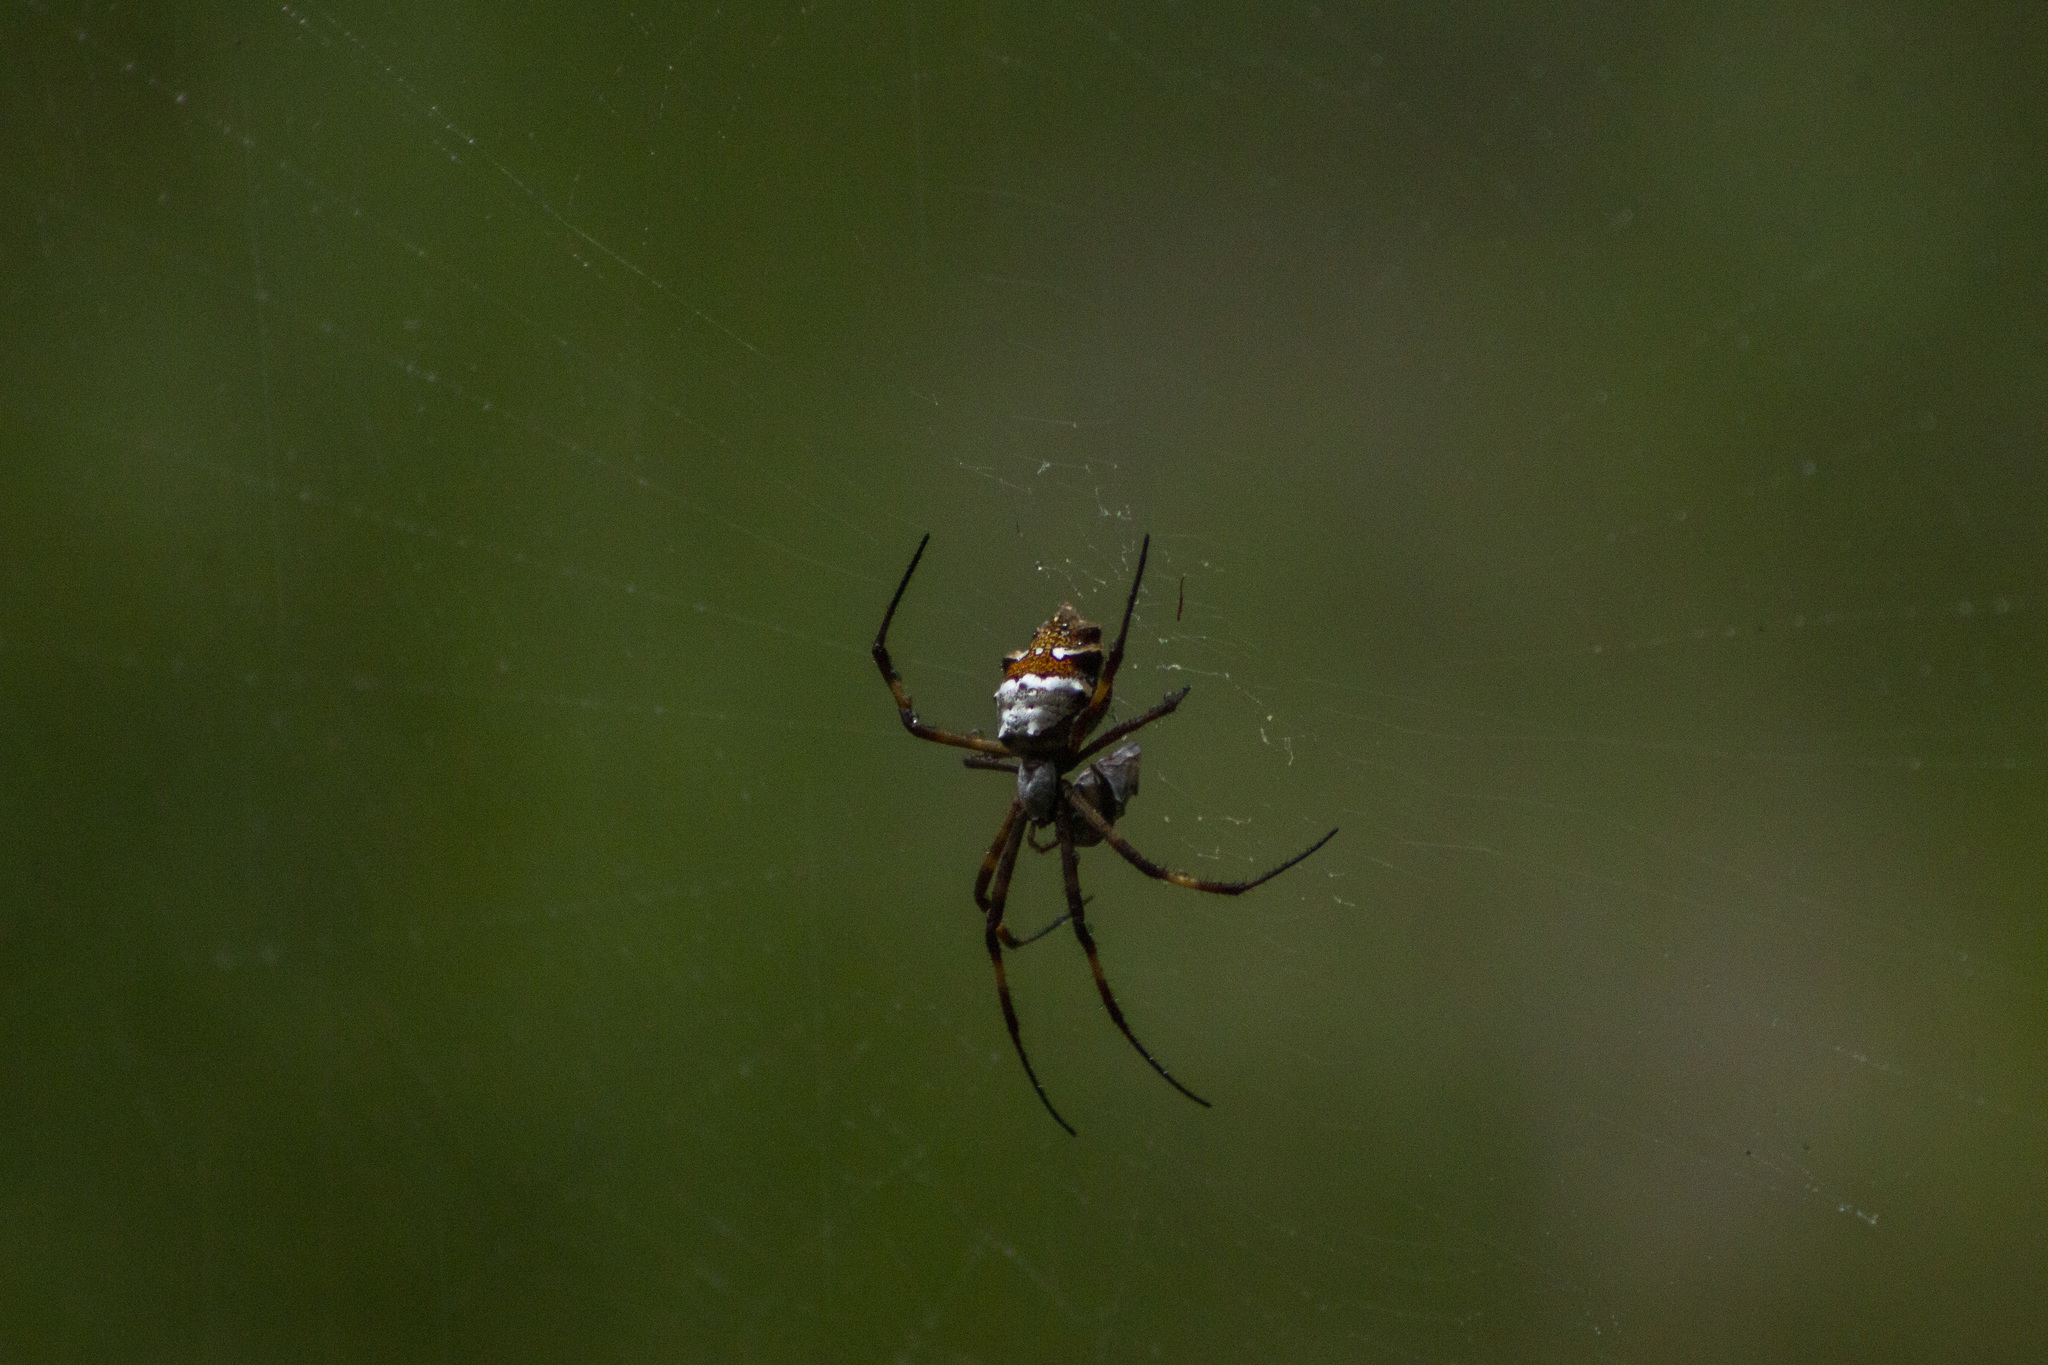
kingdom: Animalia
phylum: Arthropoda
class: Arachnida
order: Araneae
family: Araneidae
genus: Argiope
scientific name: Argiope argentata
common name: Orb weavers
